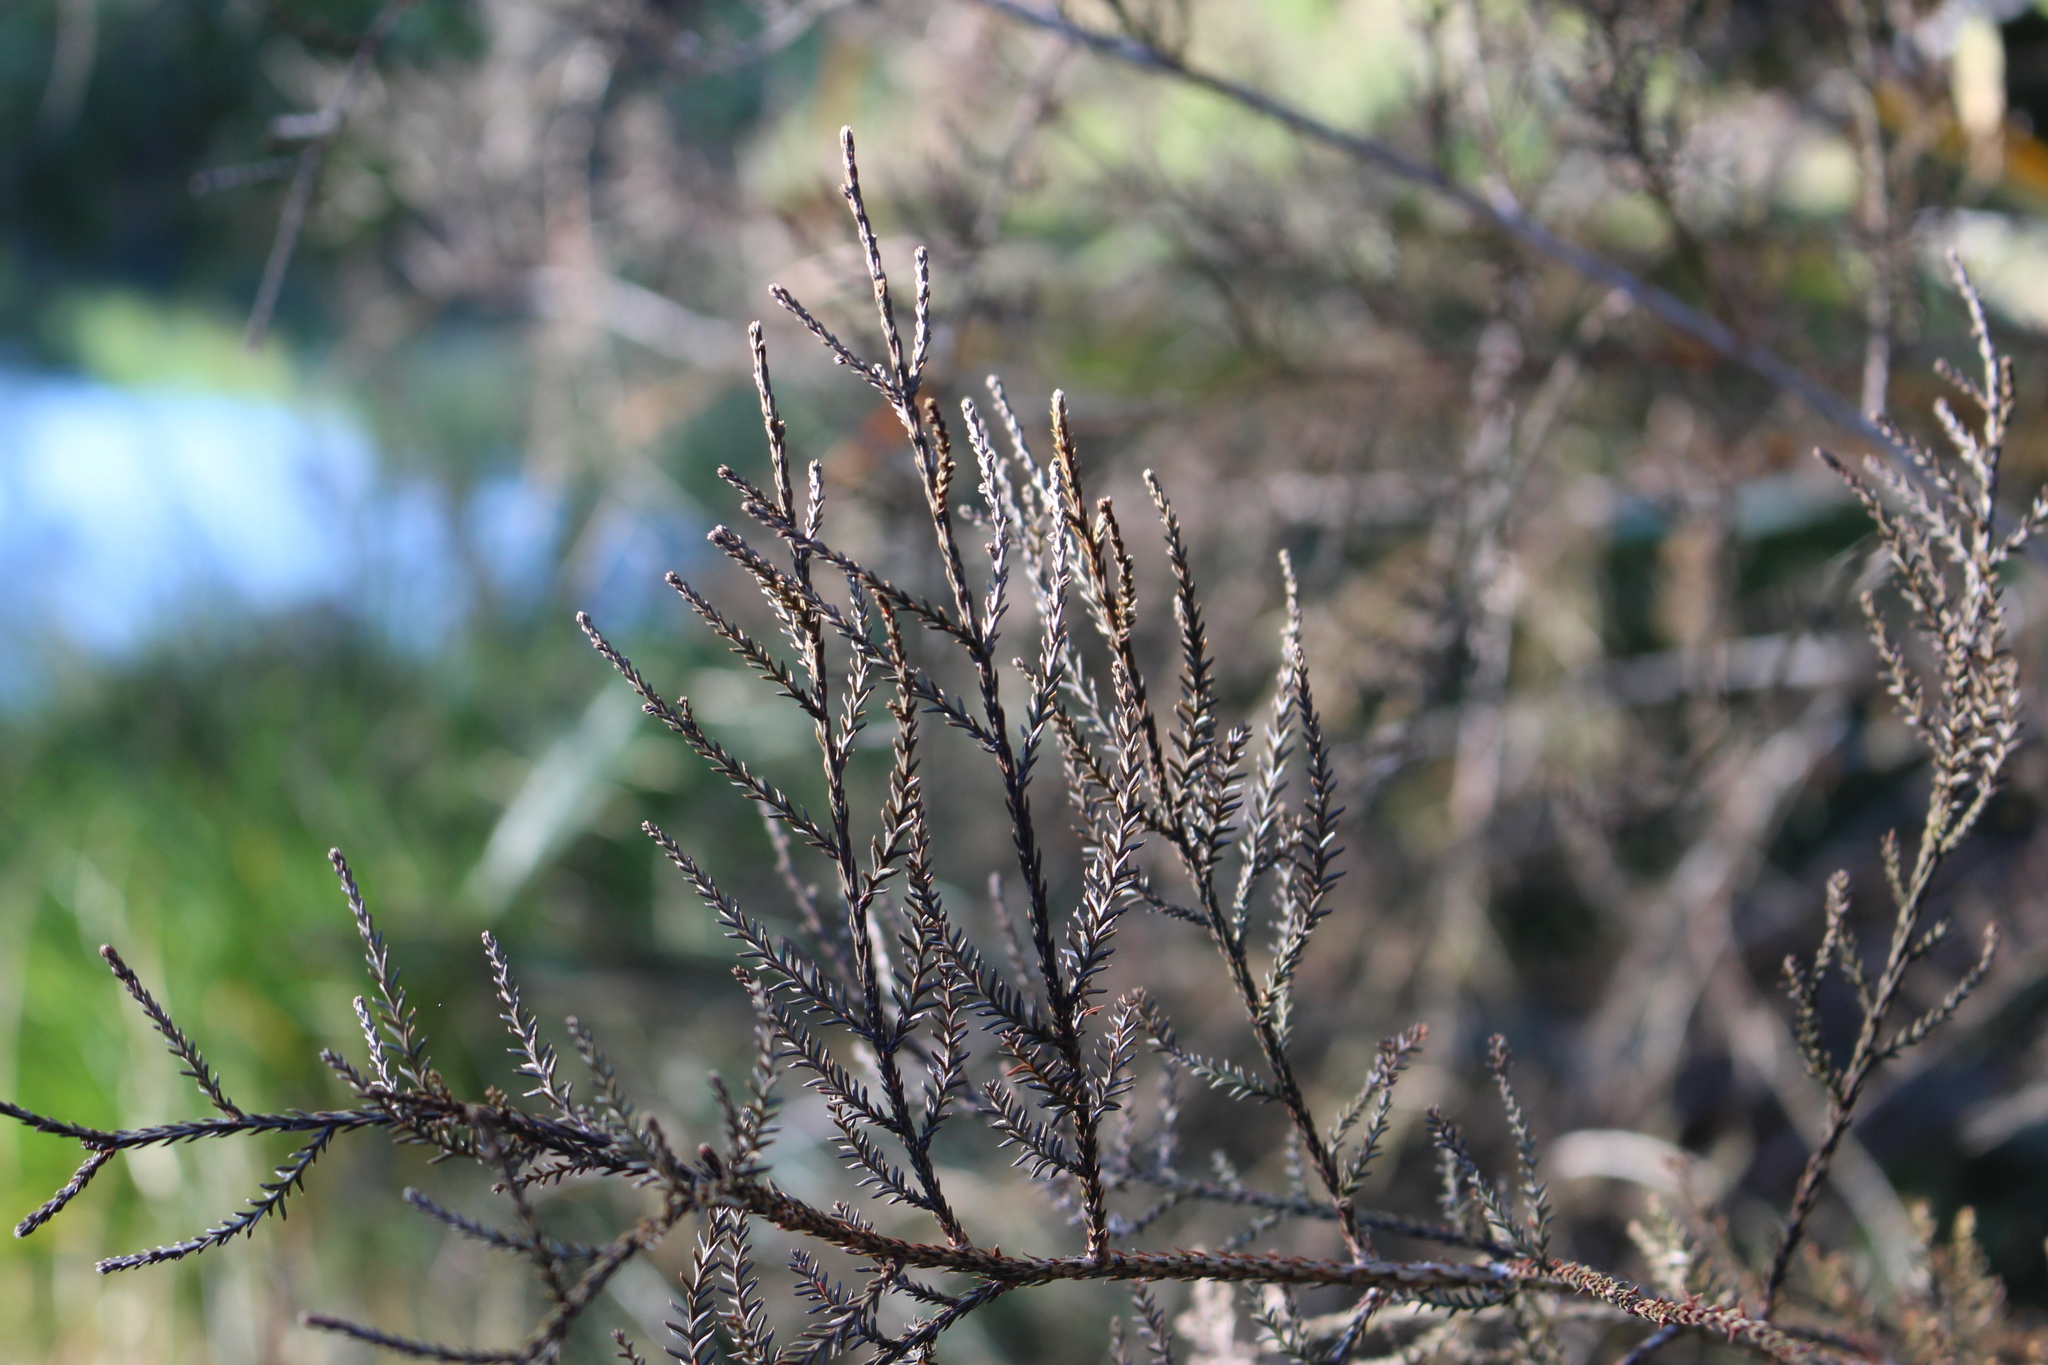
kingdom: Plantae
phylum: Tracheophyta
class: Pinopsida
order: Pinales
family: Podocarpaceae
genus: Dacrycarpus
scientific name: Dacrycarpus dacrydioides
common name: White pine
